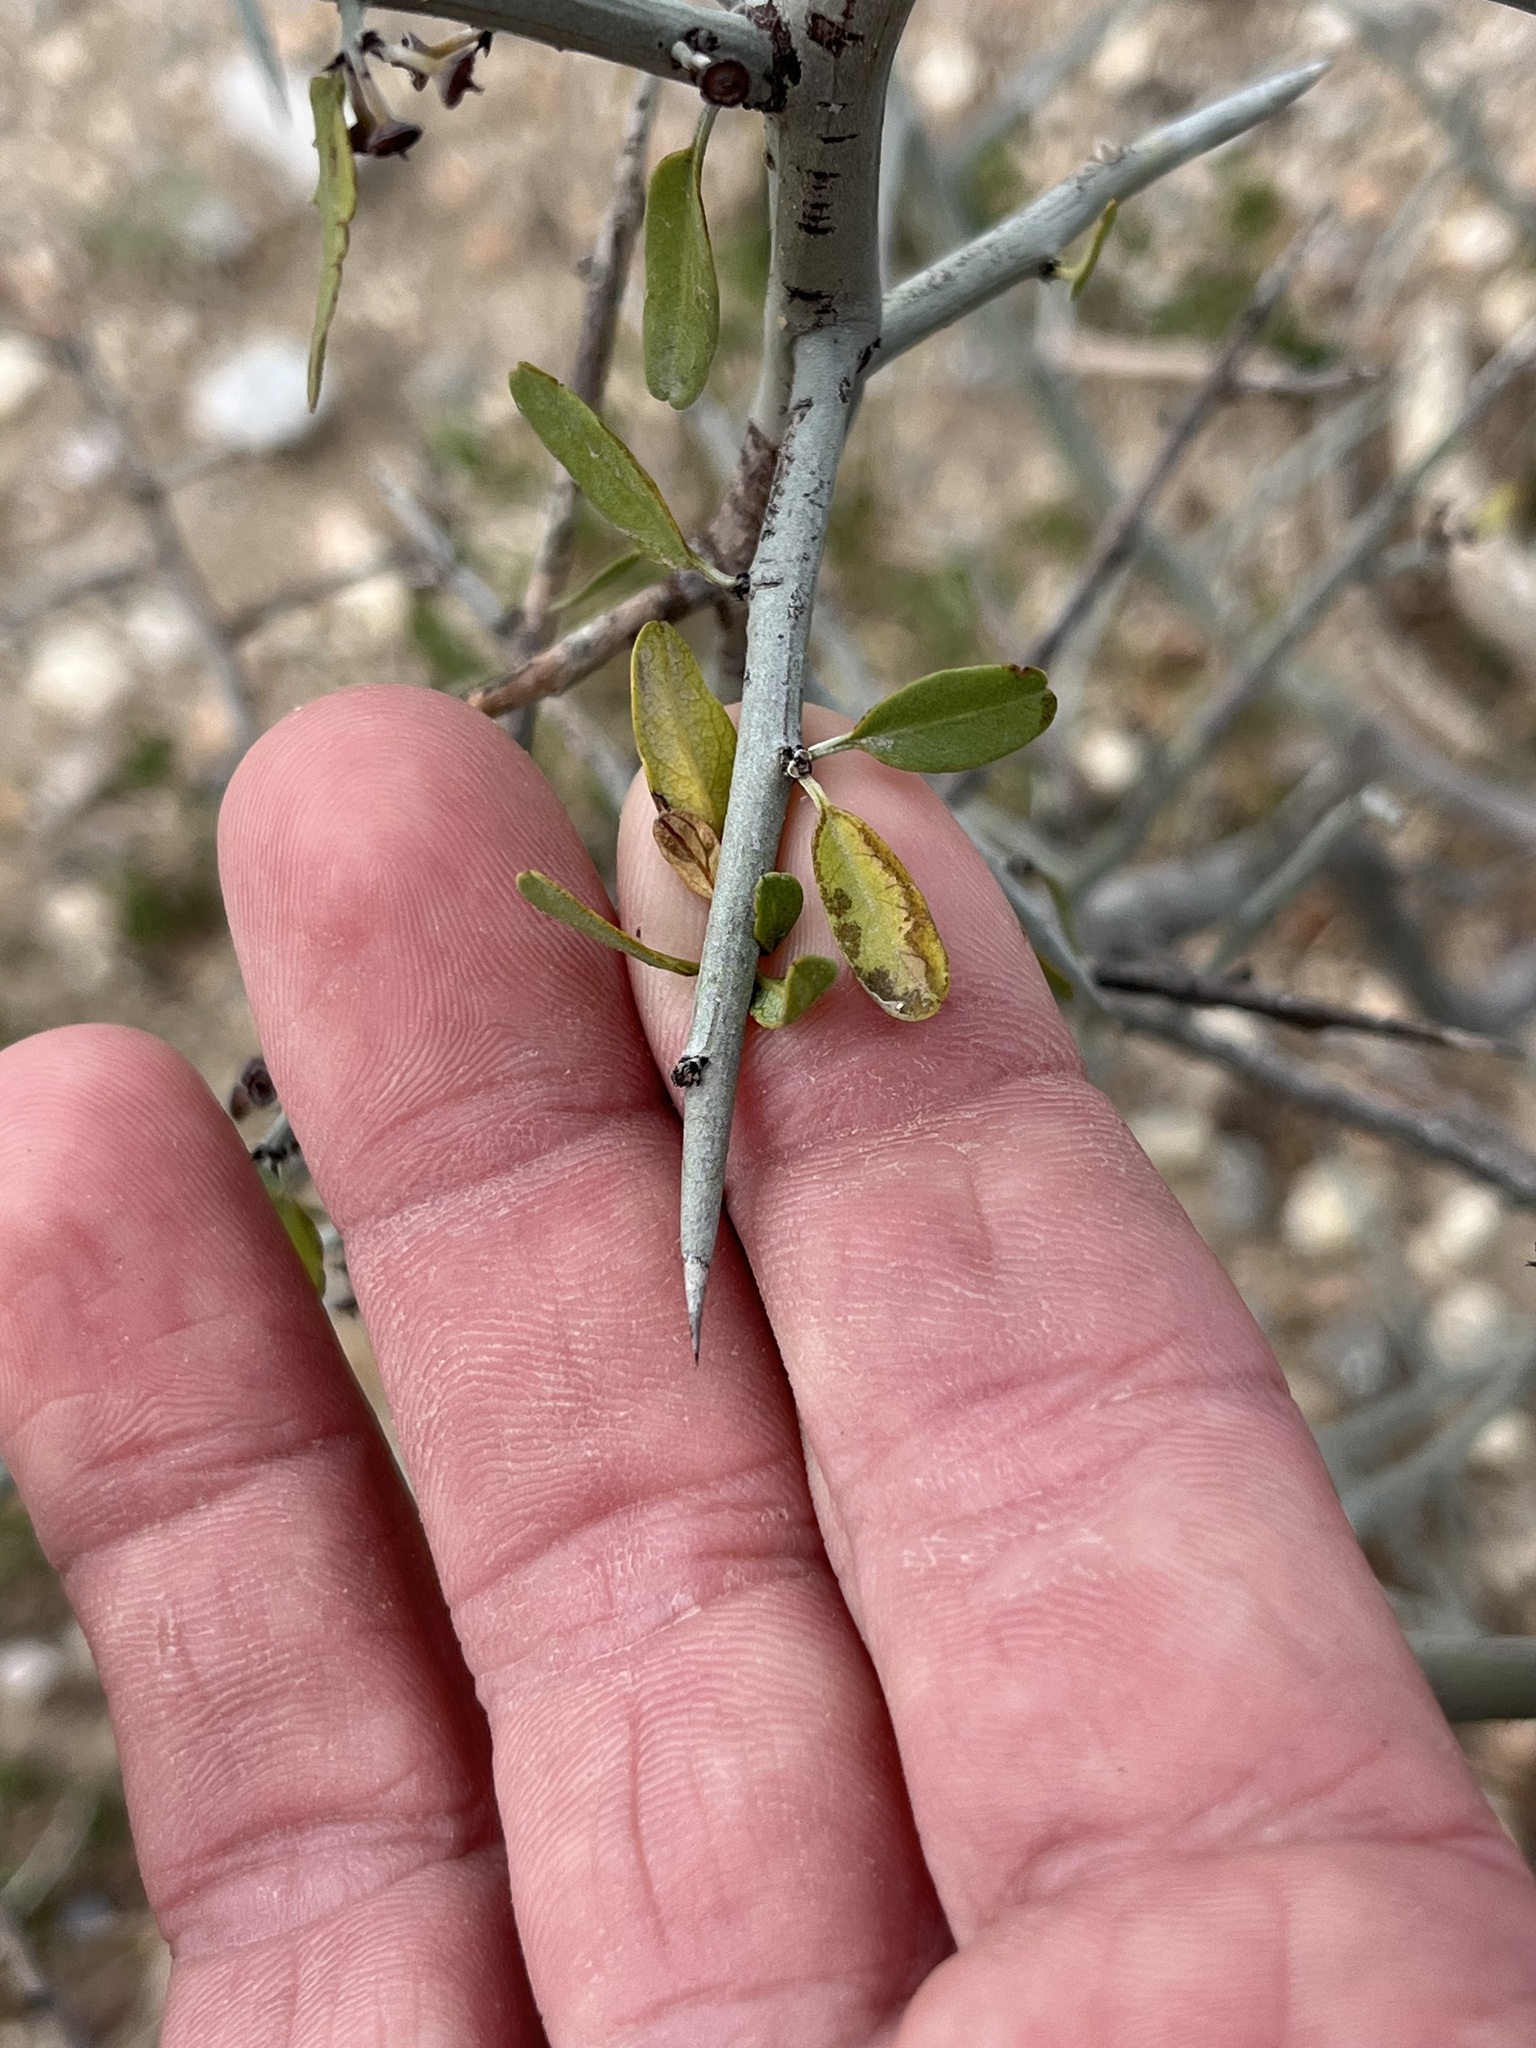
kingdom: Plantae
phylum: Tracheophyta
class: Magnoliopsida
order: Rosales
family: Rhamnaceae
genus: Sarcomphalus
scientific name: Sarcomphalus obtusifolius
